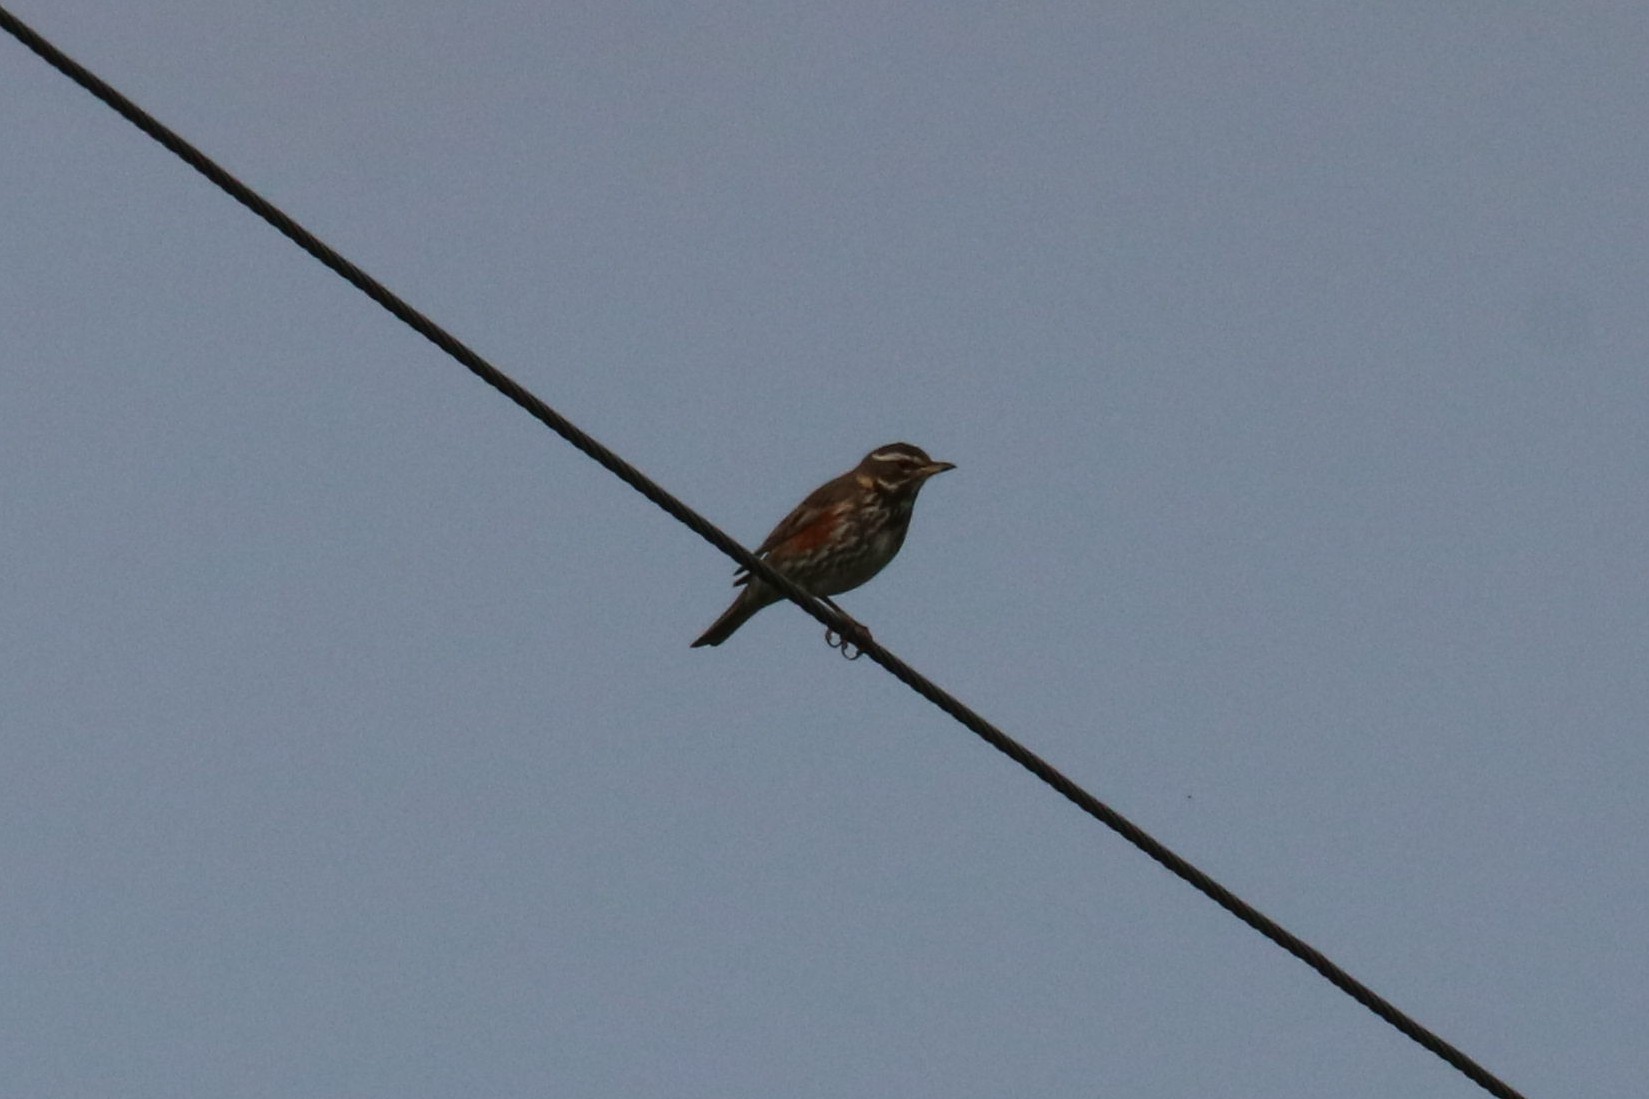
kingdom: Animalia
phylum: Chordata
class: Aves
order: Passeriformes
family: Turdidae
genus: Turdus
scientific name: Turdus iliacus
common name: Redwing
